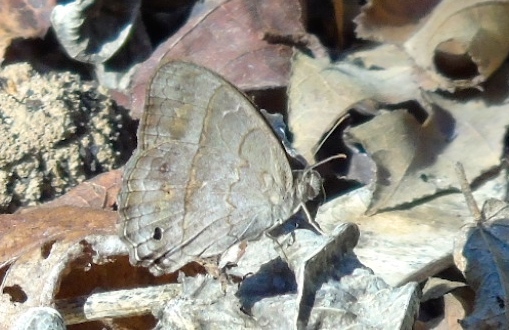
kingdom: Animalia
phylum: Arthropoda
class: Insecta
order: Lepidoptera
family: Nymphalidae
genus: Vareuptychia
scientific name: Vareuptychia similis
